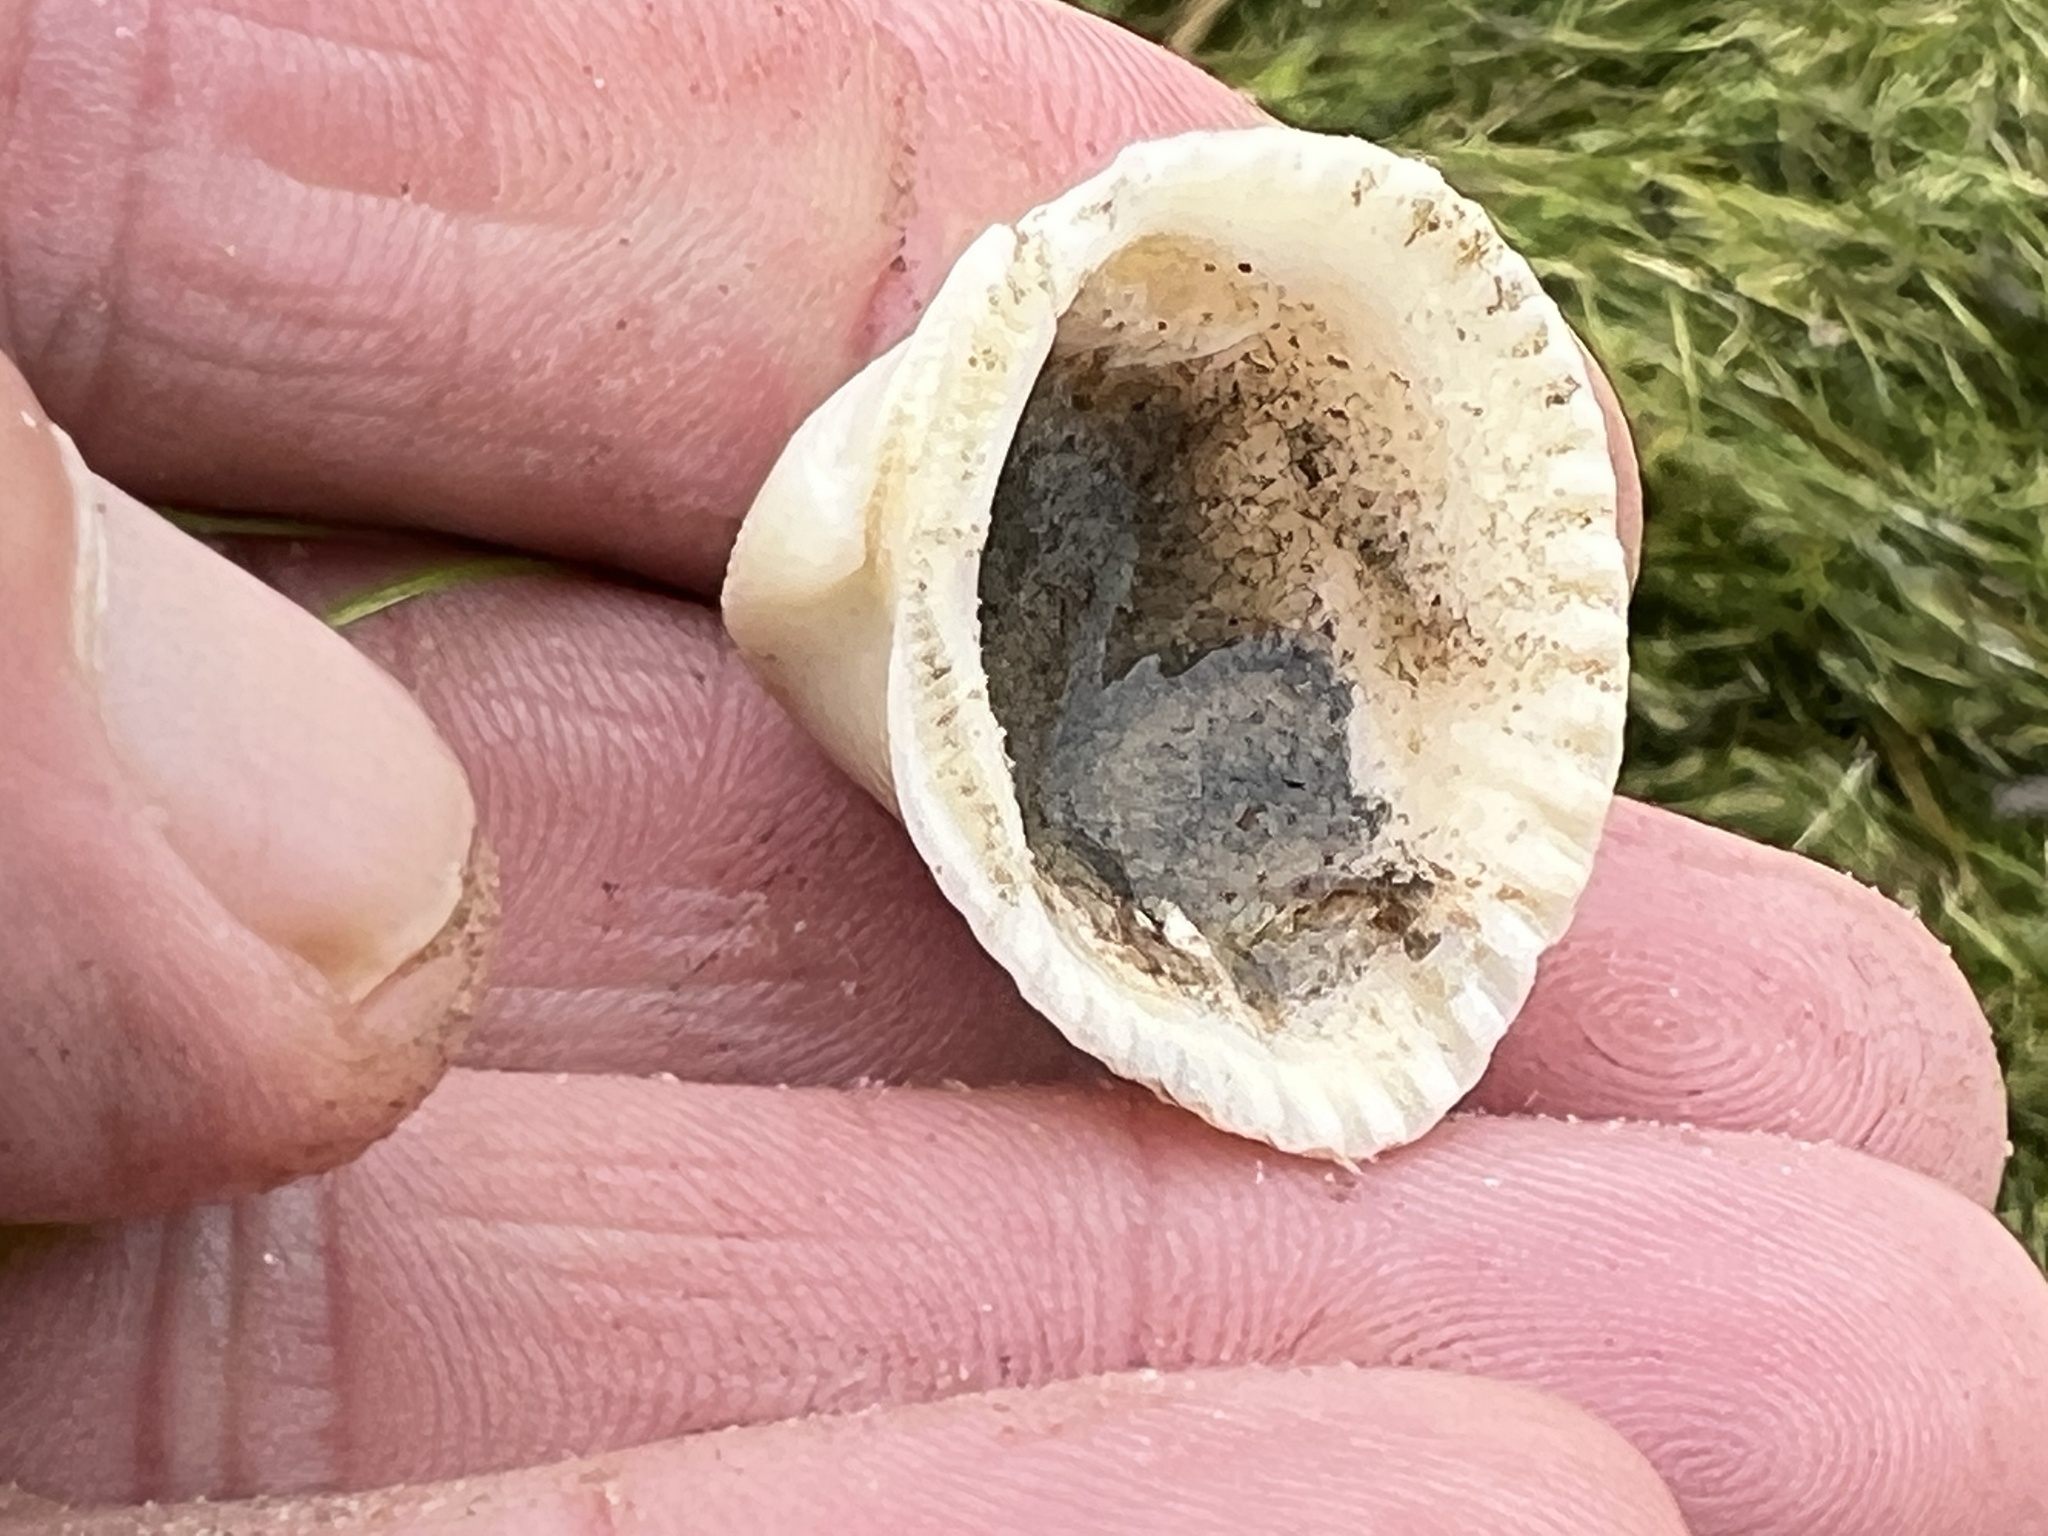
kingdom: Animalia
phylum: Mollusca
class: Bivalvia
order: Arcida
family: Noetiidae
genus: Noetia
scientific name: Noetia ponderosa
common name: Ponderous ark
